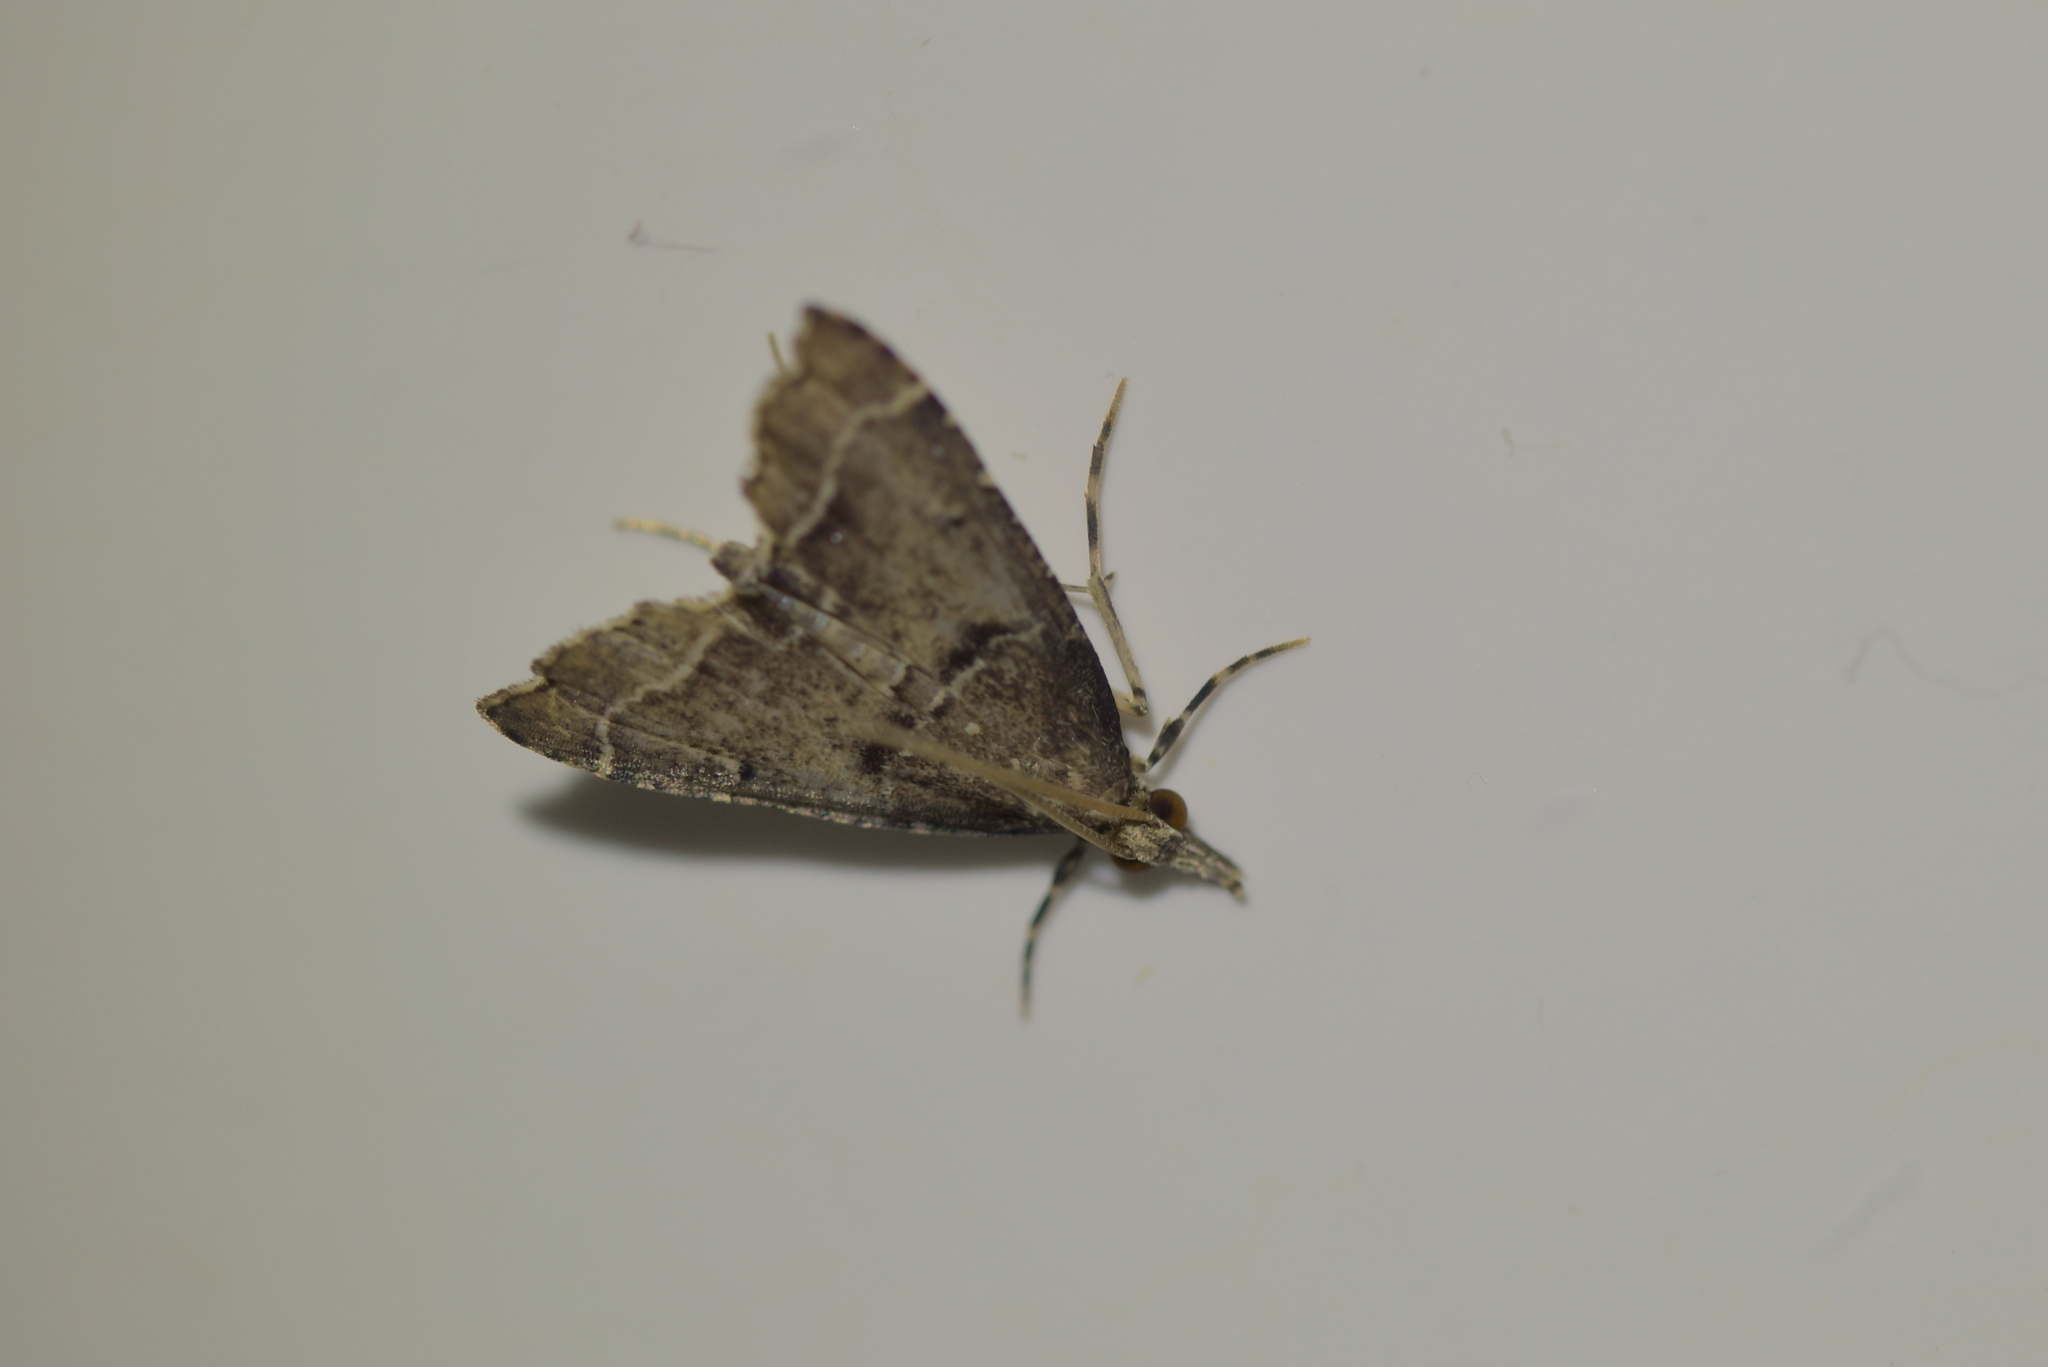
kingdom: Animalia
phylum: Arthropoda
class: Insecta
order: Lepidoptera
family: Crambidae
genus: Diplopseustis
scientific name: Diplopseustis perieresalis
